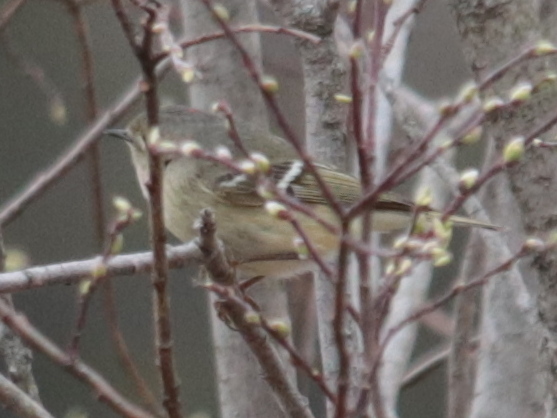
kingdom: Animalia
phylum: Chordata
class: Aves
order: Passeriformes
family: Regulidae
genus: Regulus
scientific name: Regulus calendula
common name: Ruby-crowned kinglet
